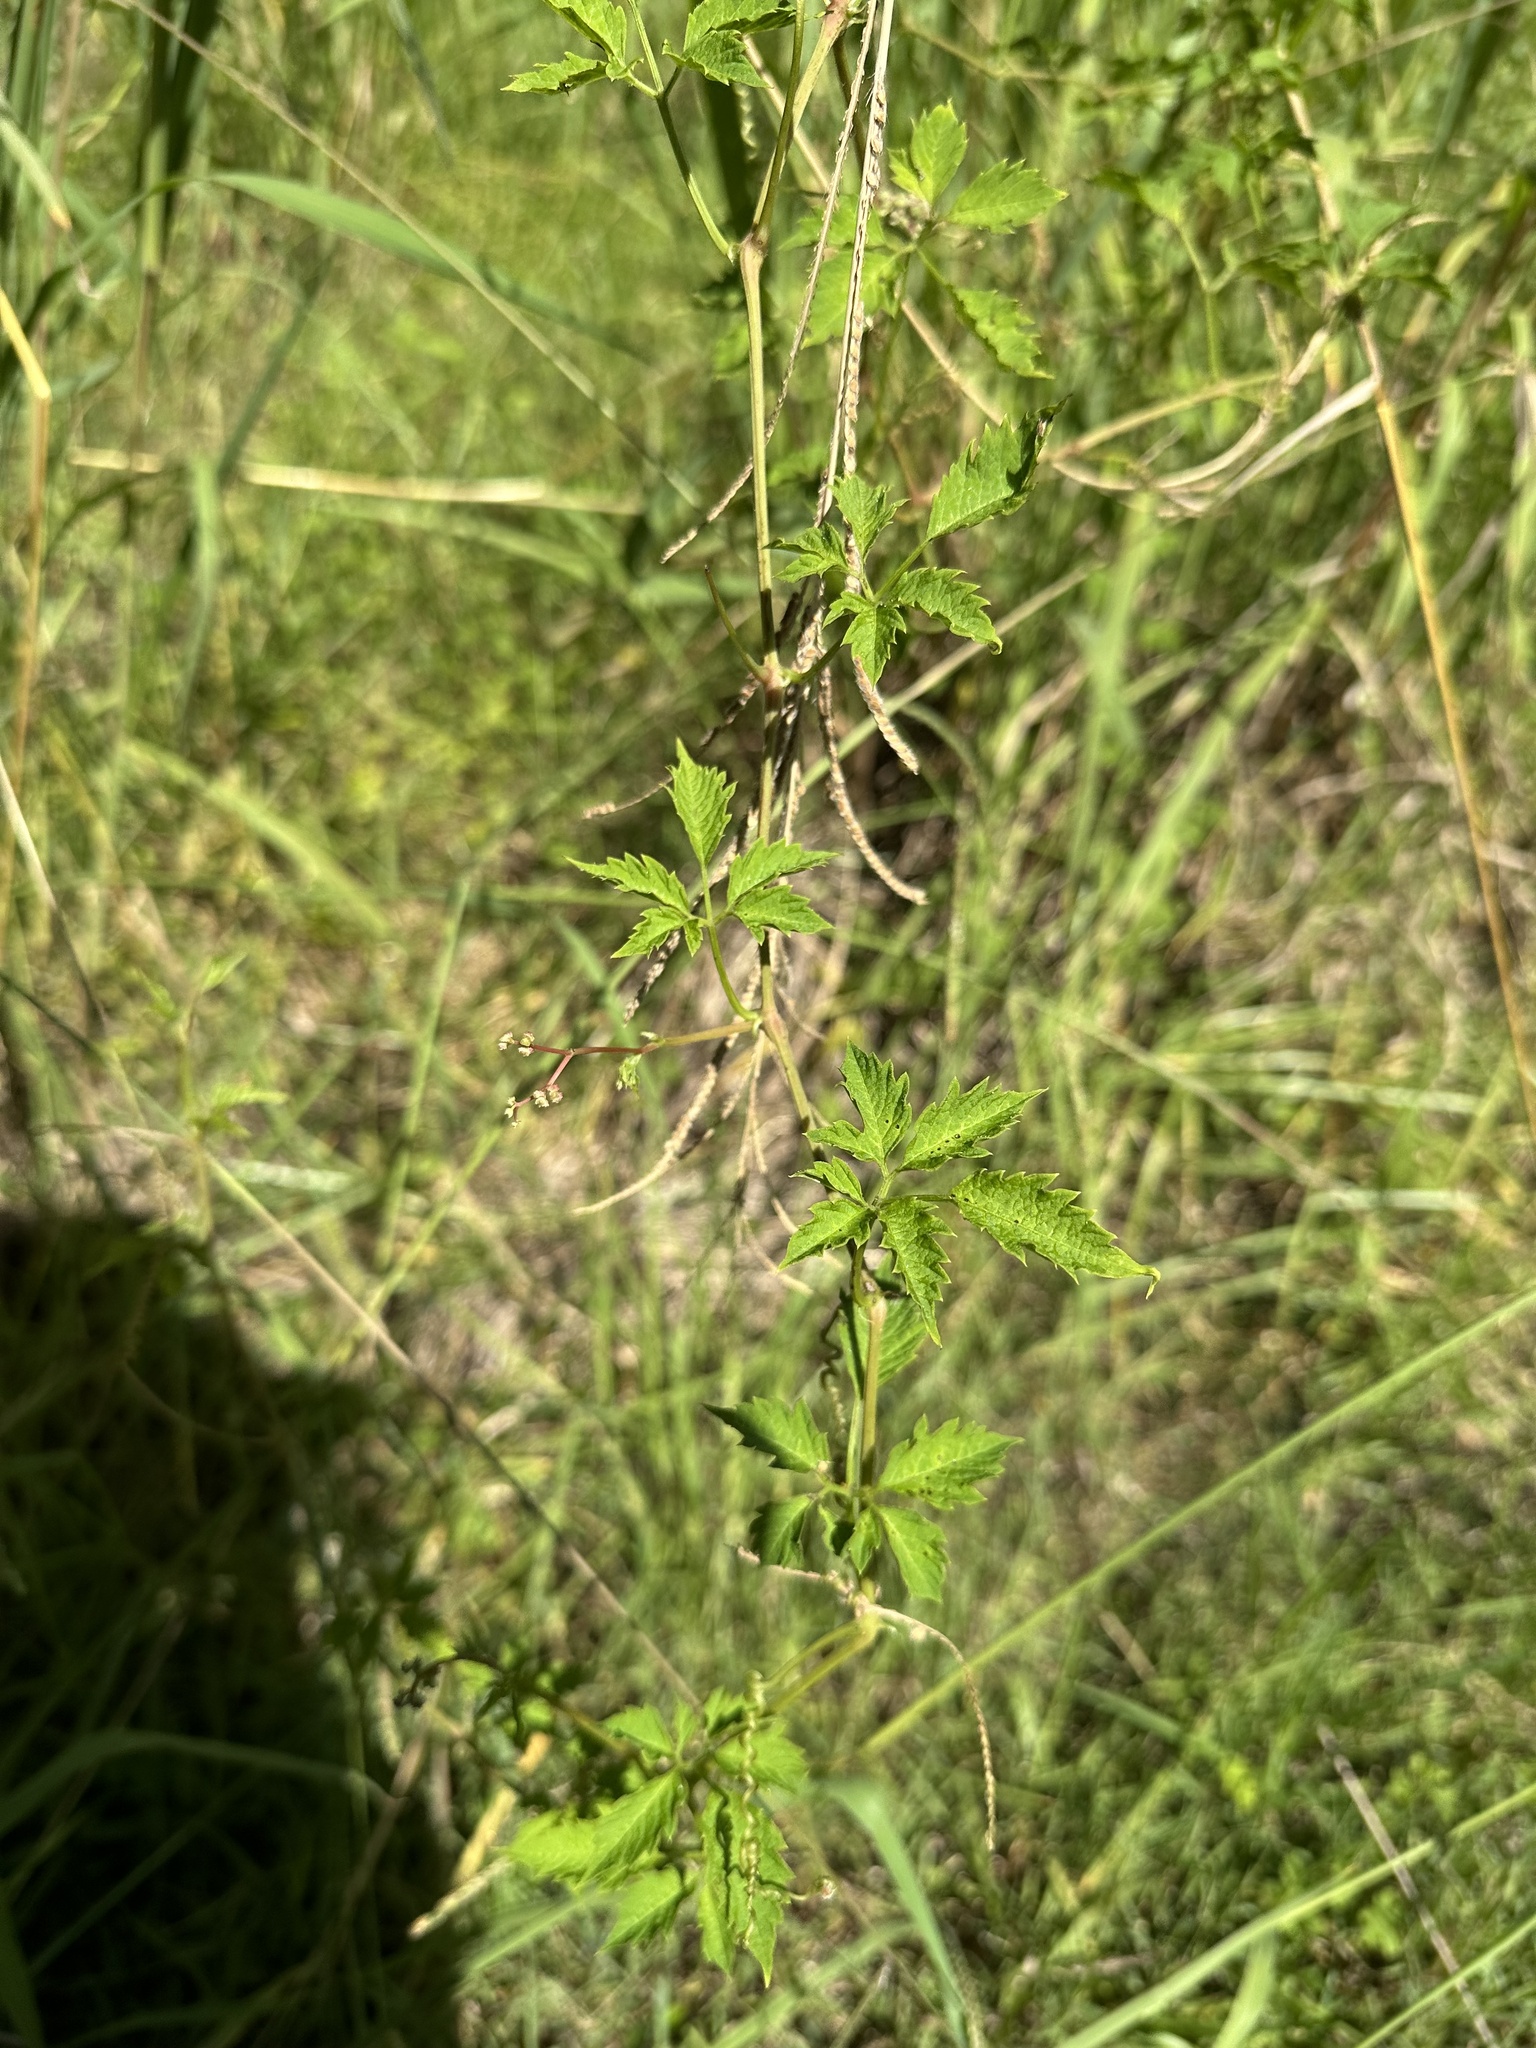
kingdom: Plantae
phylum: Tracheophyta
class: Magnoliopsida
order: Vitales
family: Vitaceae
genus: Causonis
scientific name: Causonis clematidea
